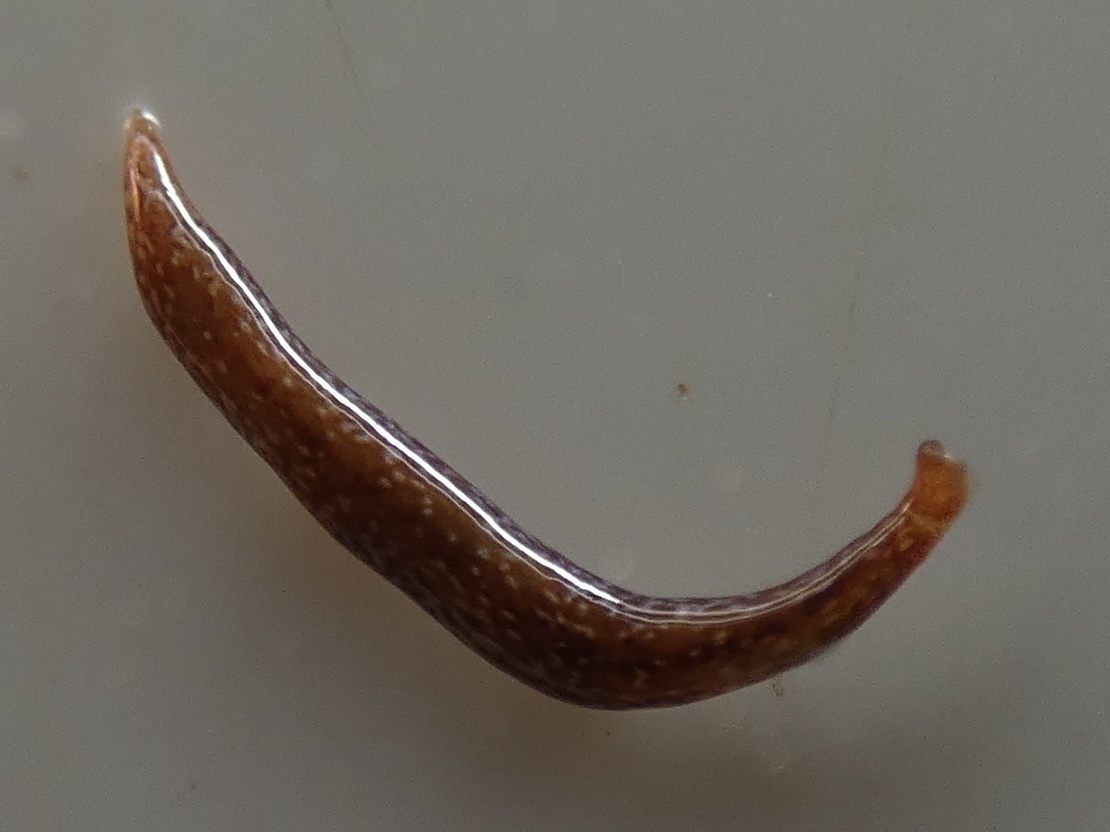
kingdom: Animalia
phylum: Platyhelminthes
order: Tricladida
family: Geoplanidae
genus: Marionfyfea
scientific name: Marionfyfea adventor
